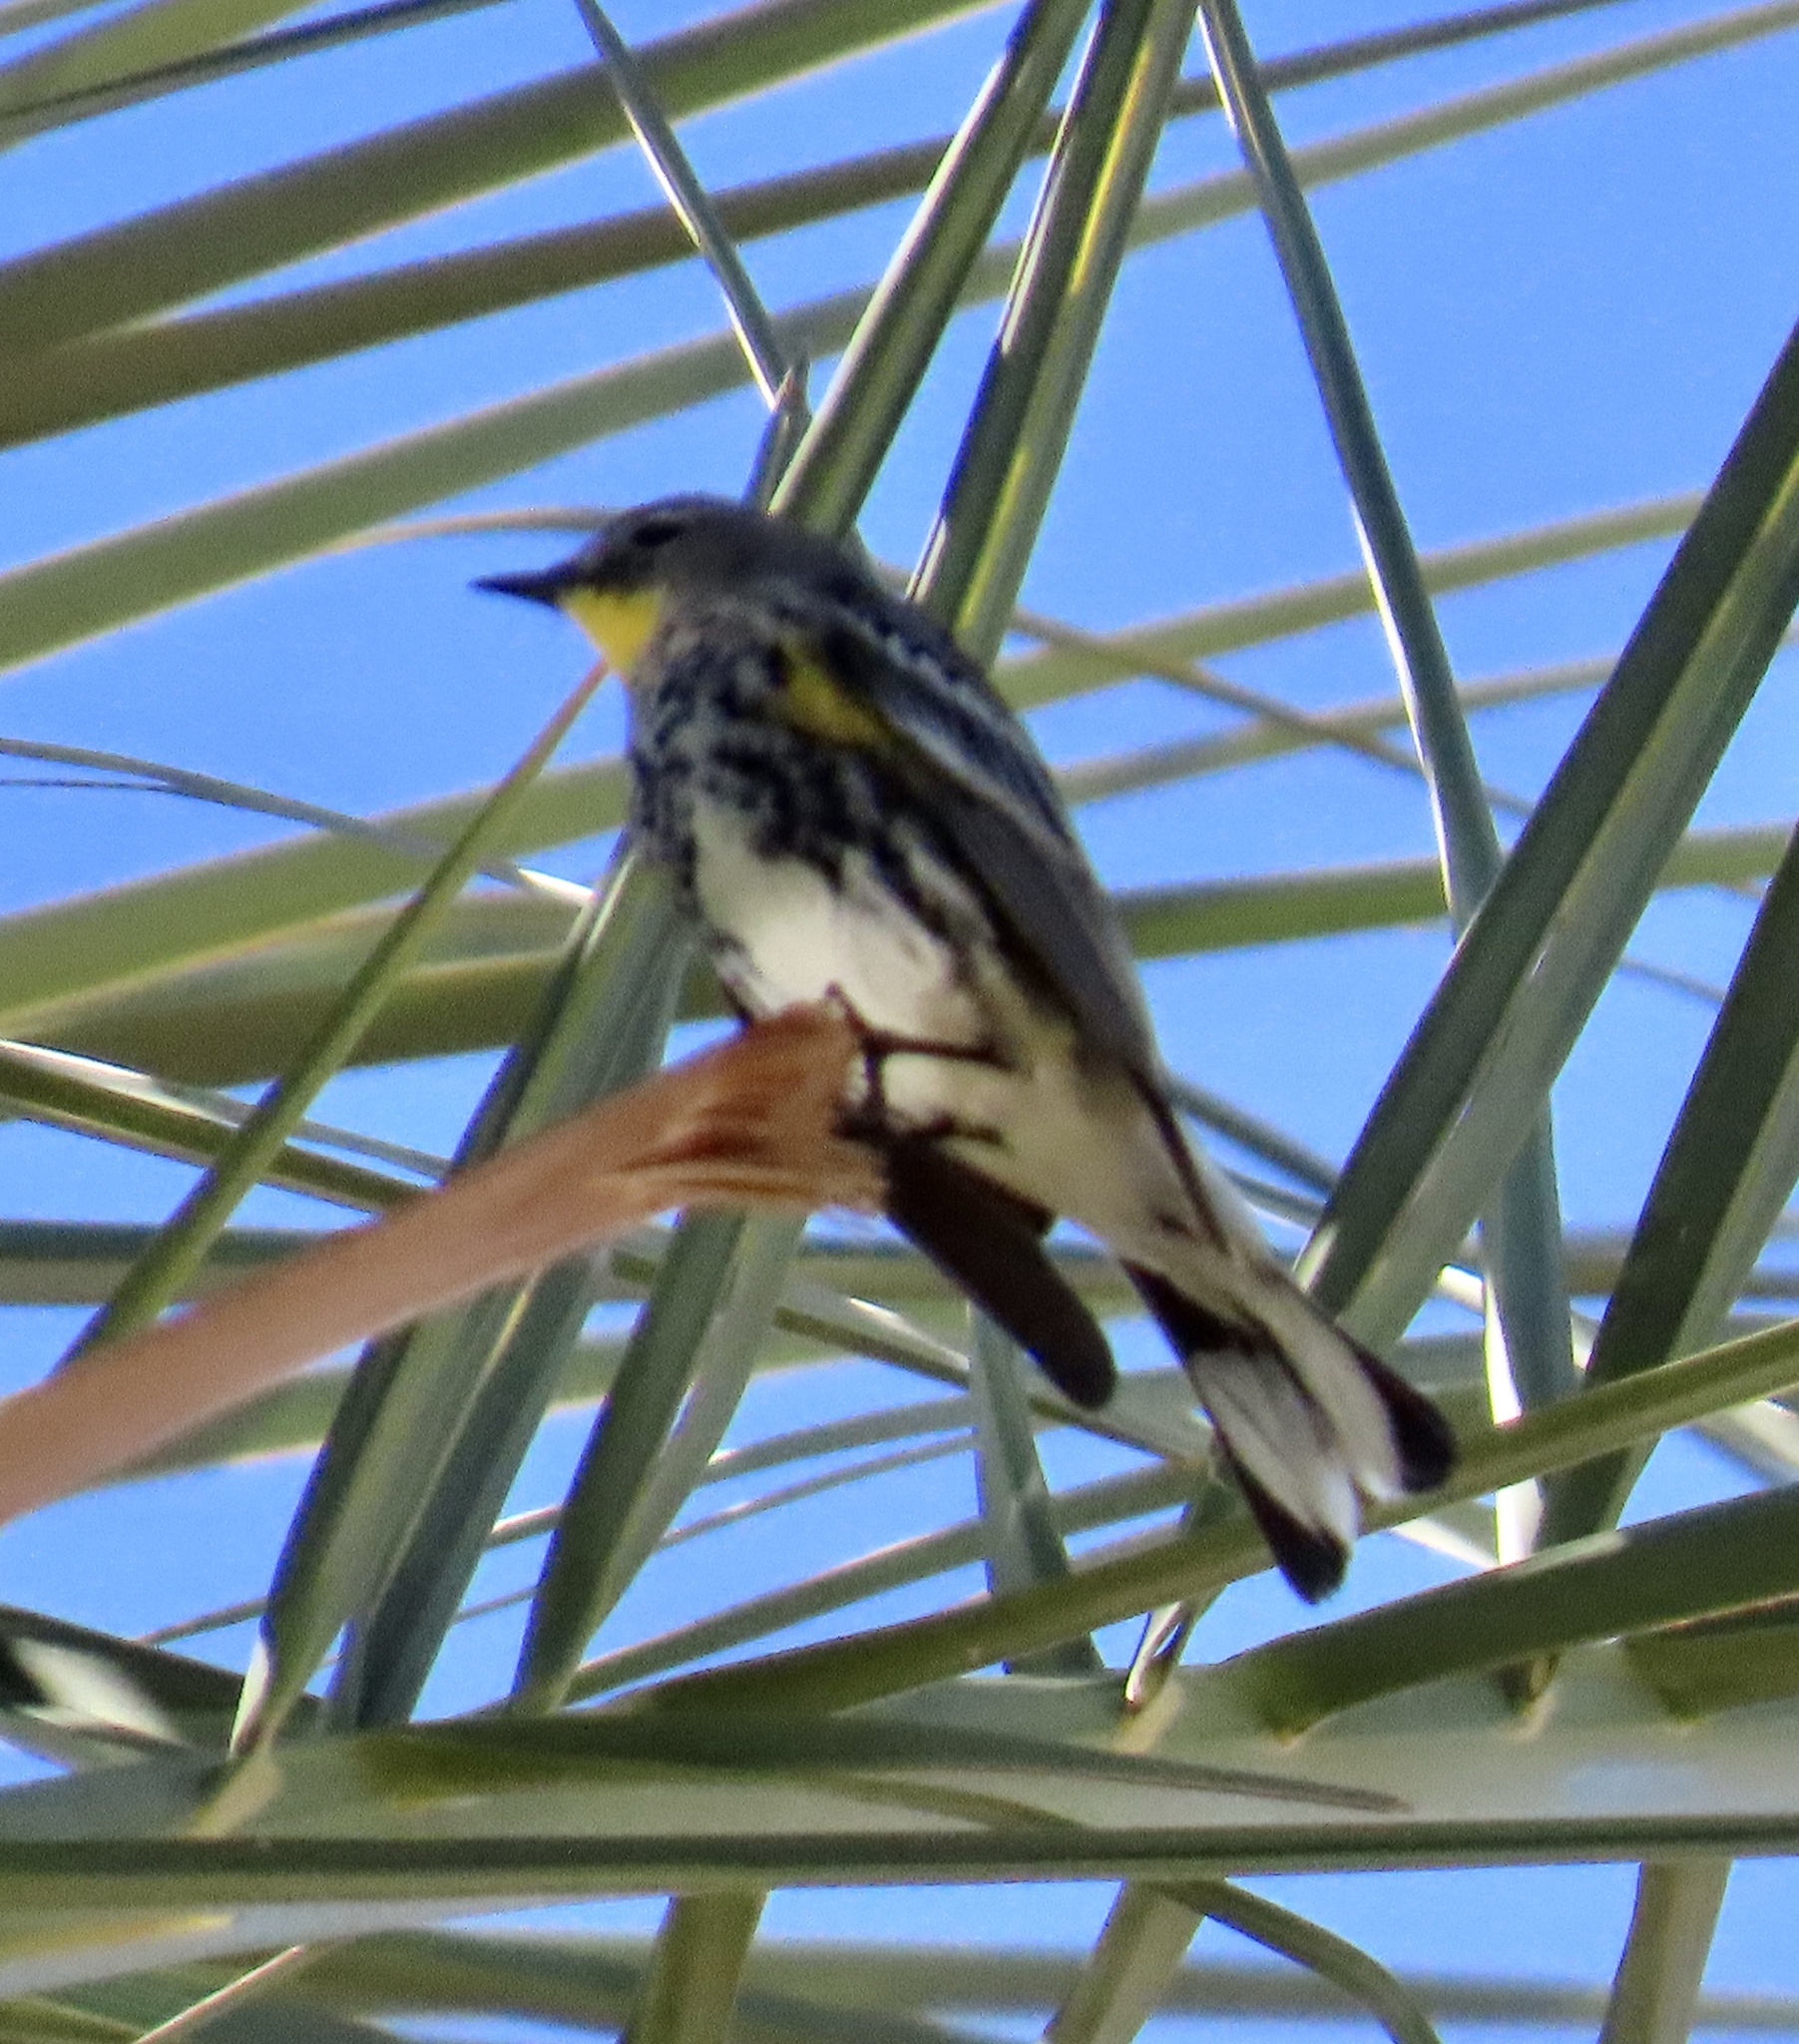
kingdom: Animalia
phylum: Chordata
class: Aves
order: Passeriformes
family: Parulidae
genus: Setophaga
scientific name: Setophaga auduboni
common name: Audubon's warbler
